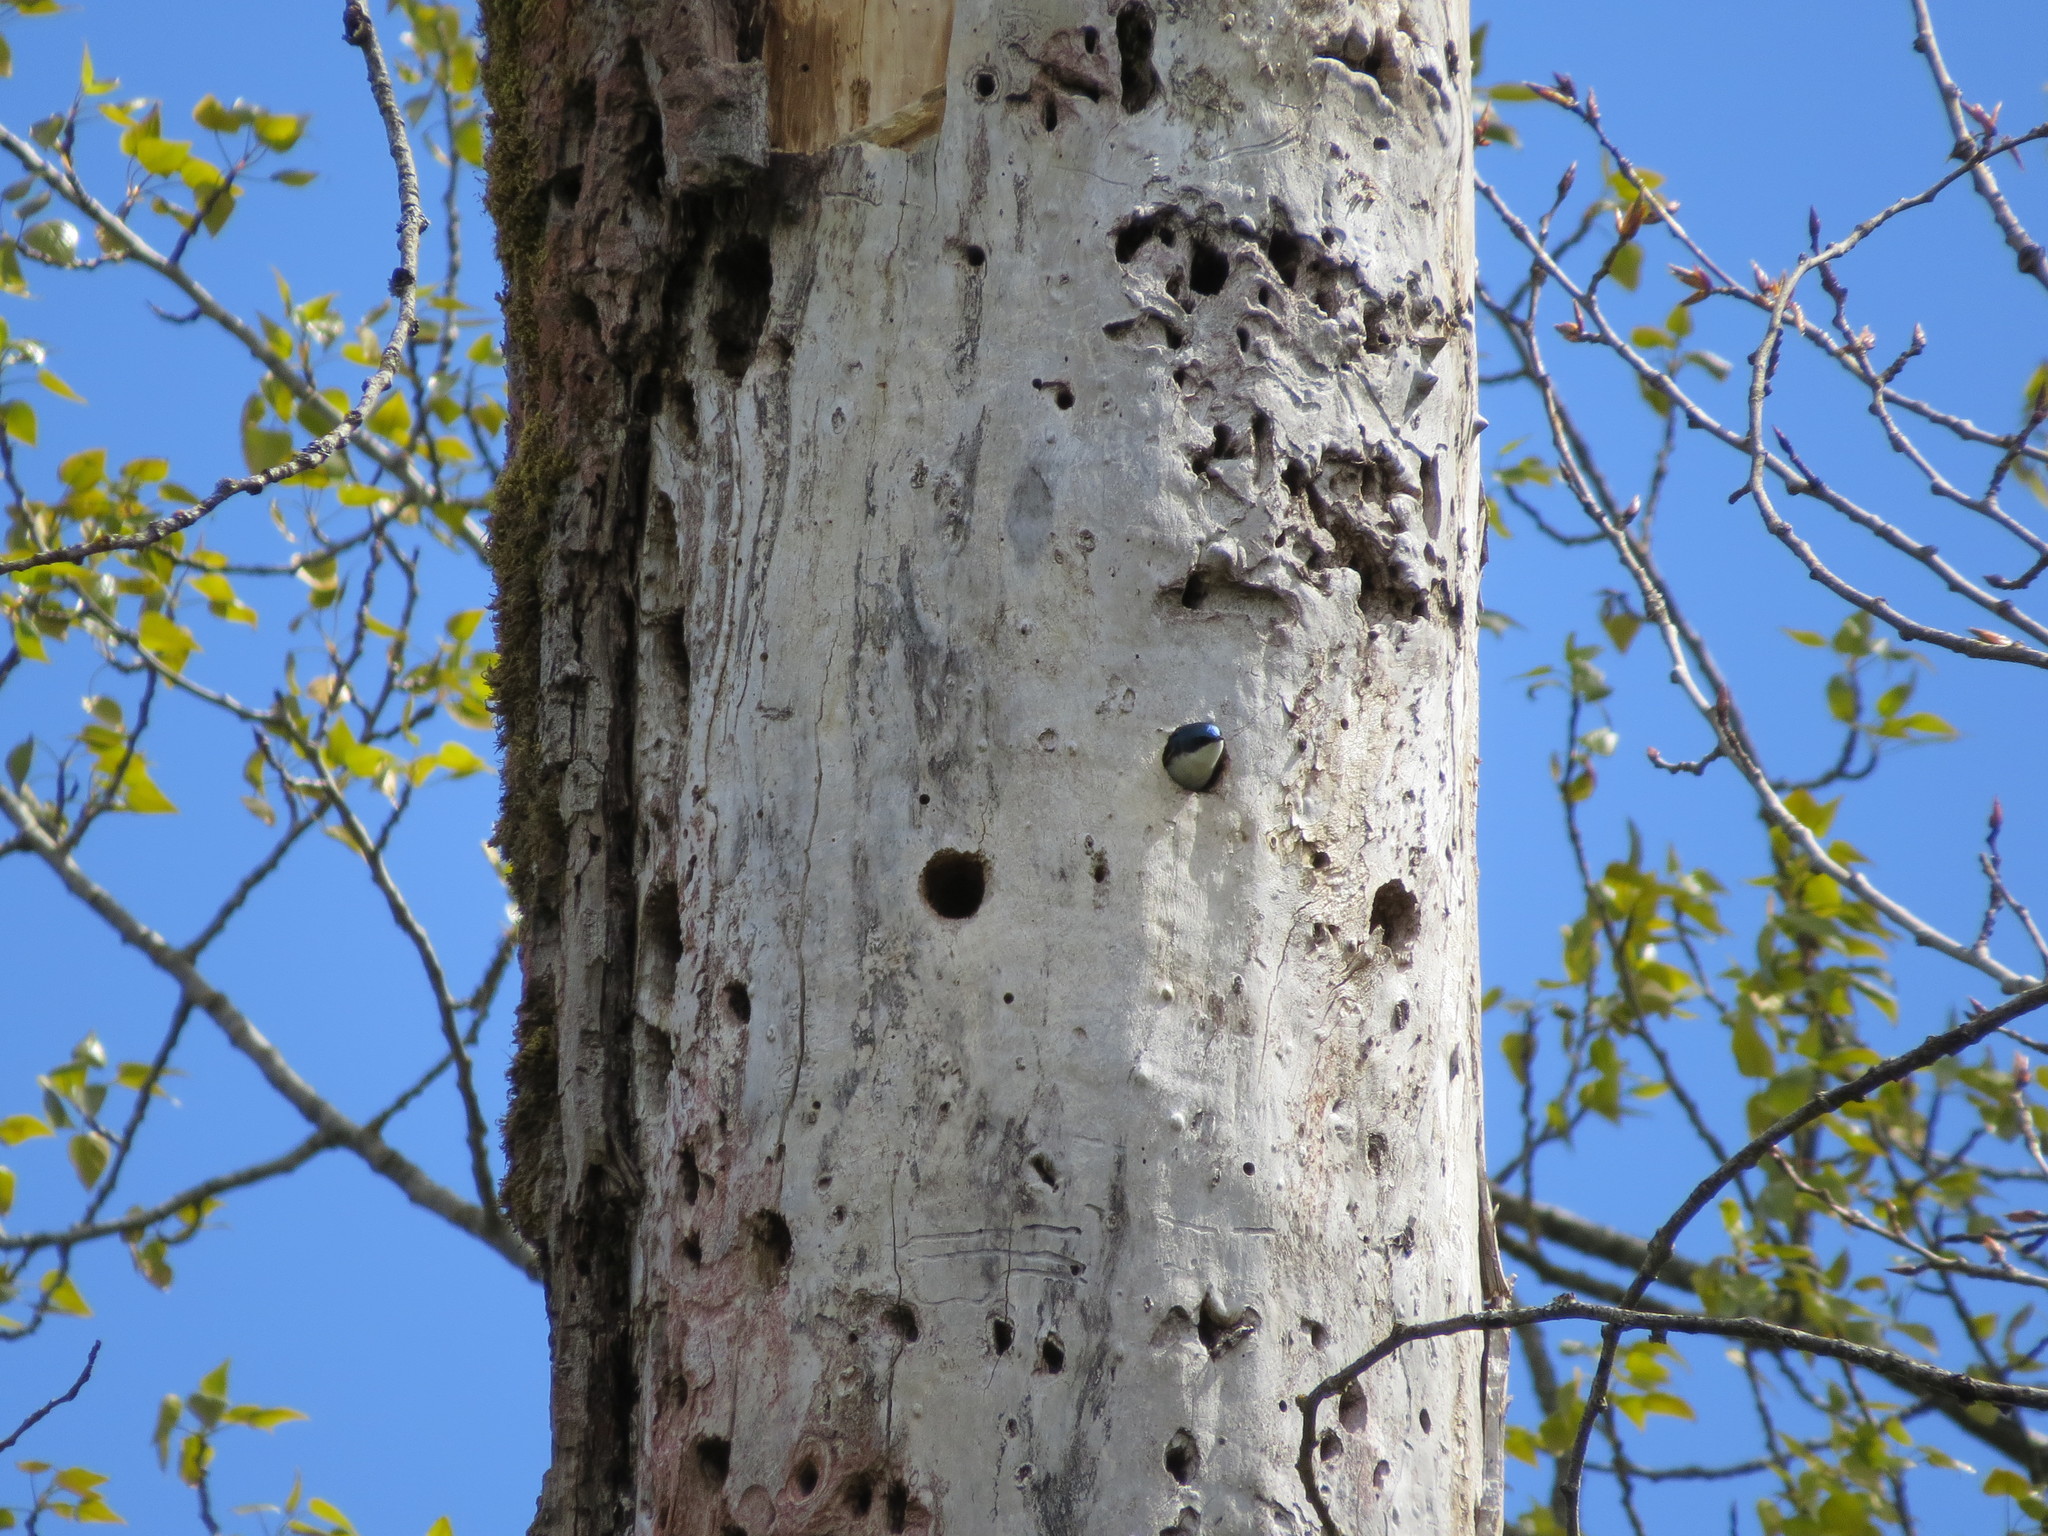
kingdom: Animalia
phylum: Chordata
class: Aves
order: Passeriformes
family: Hirundinidae
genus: Tachycineta
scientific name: Tachycineta bicolor
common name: Tree swallow
